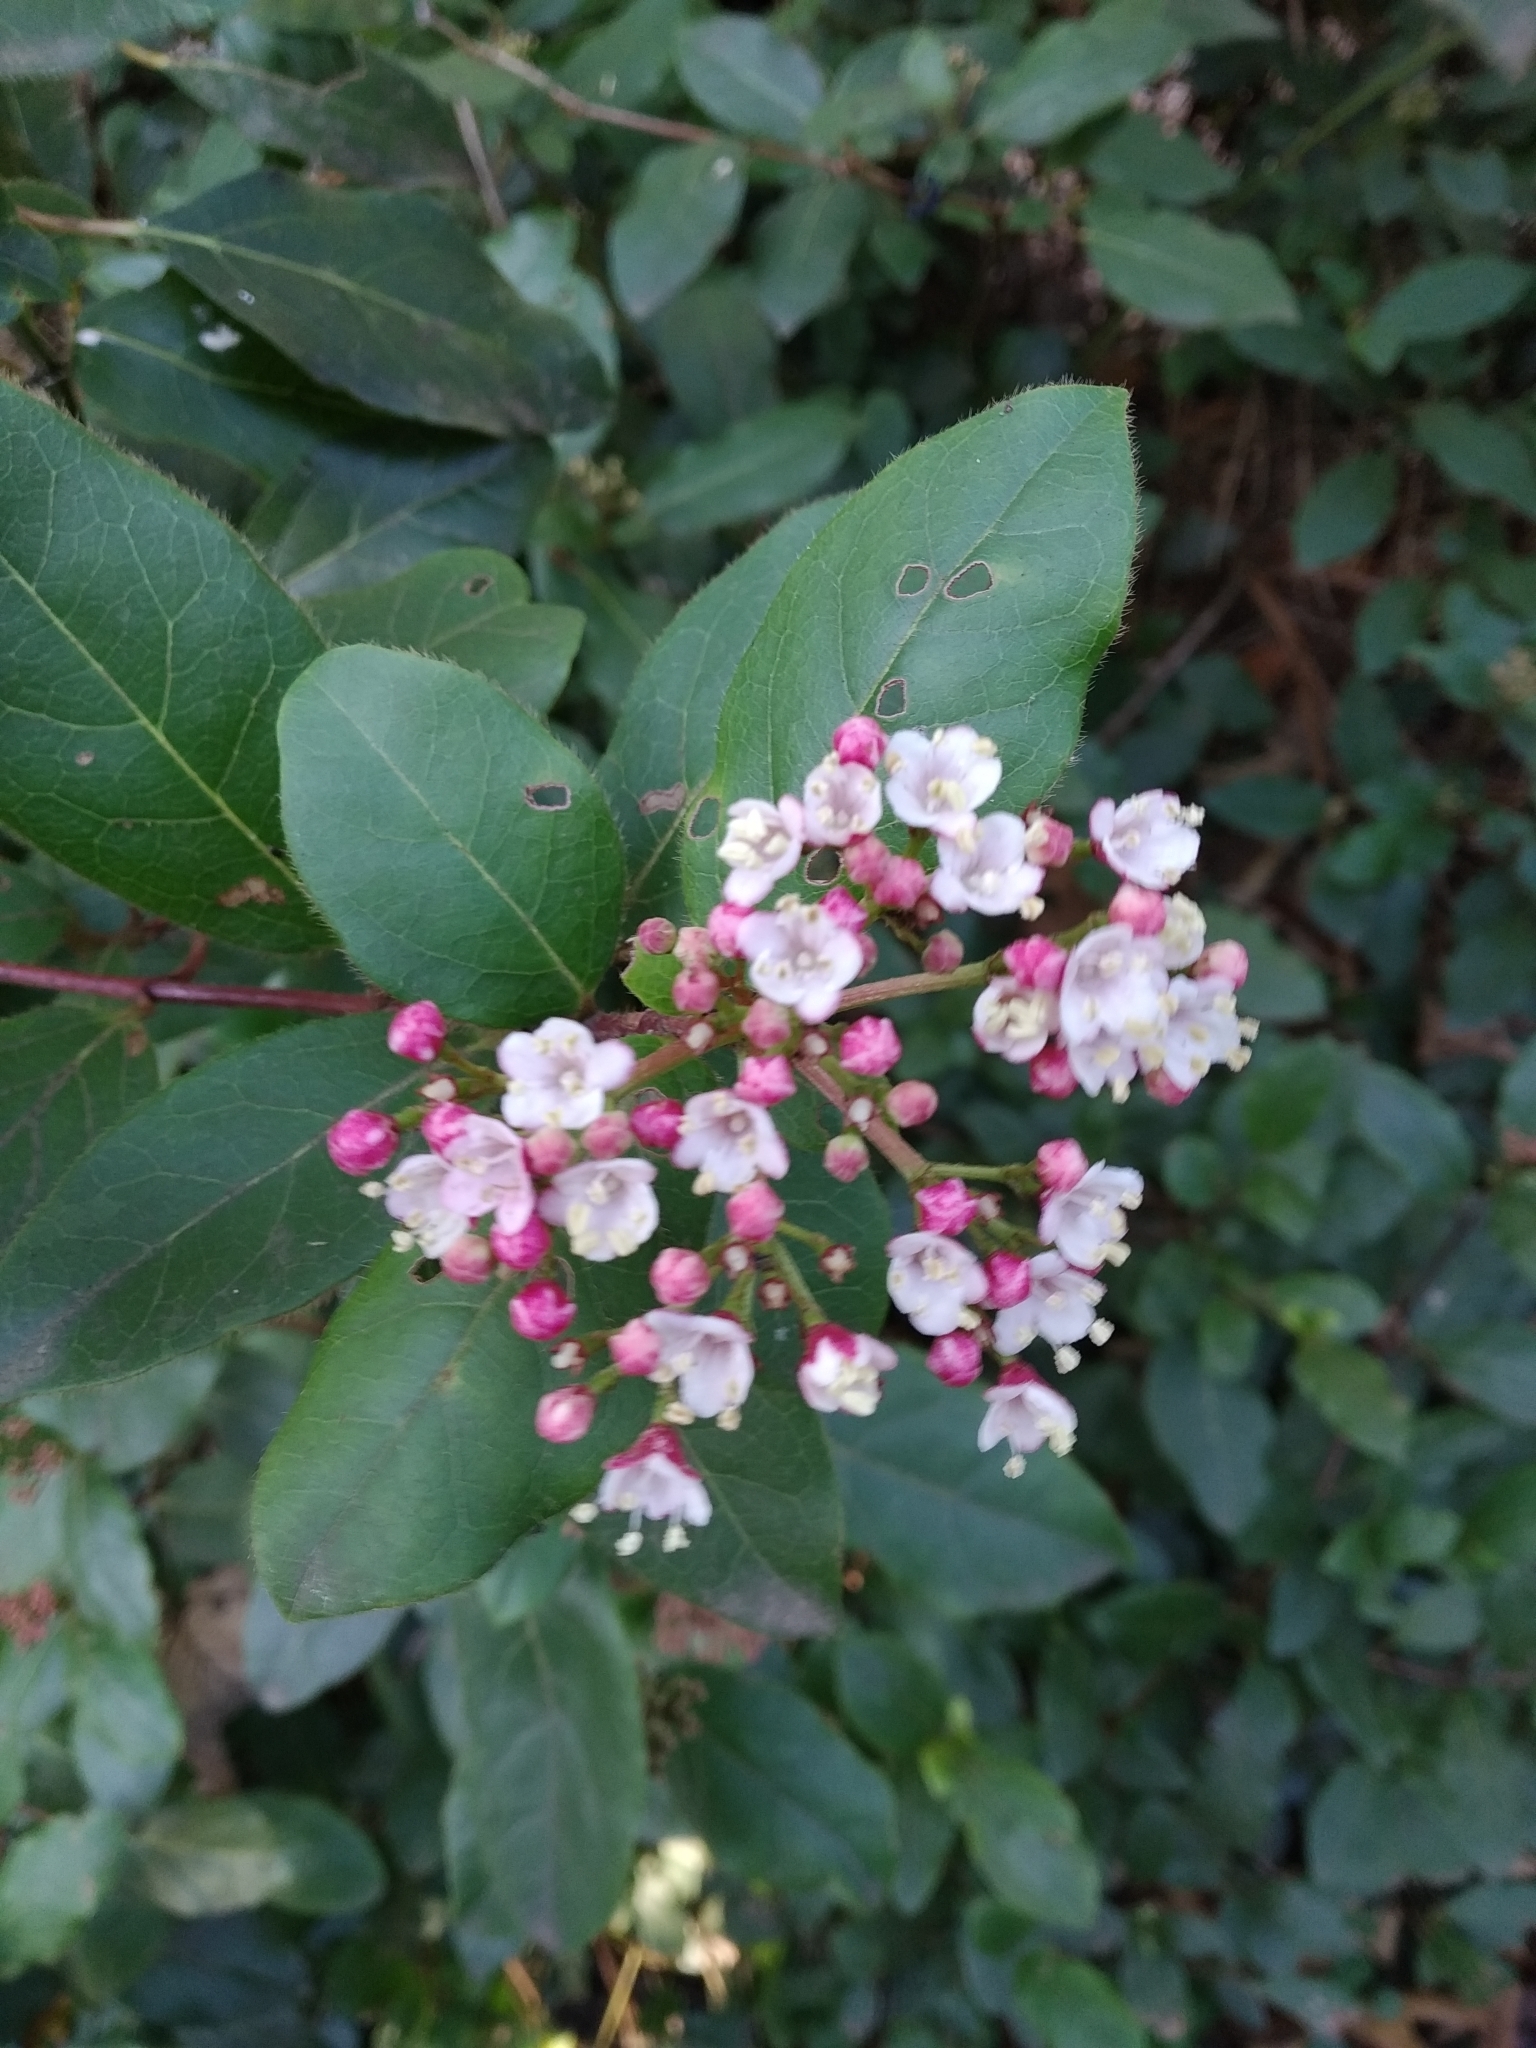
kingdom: Plantae
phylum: Tracheophyta
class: Magnoliopsida
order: Dipsacales
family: Viburnaceae
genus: Viburnum
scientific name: Viburnum tinus
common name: Laurustinus
